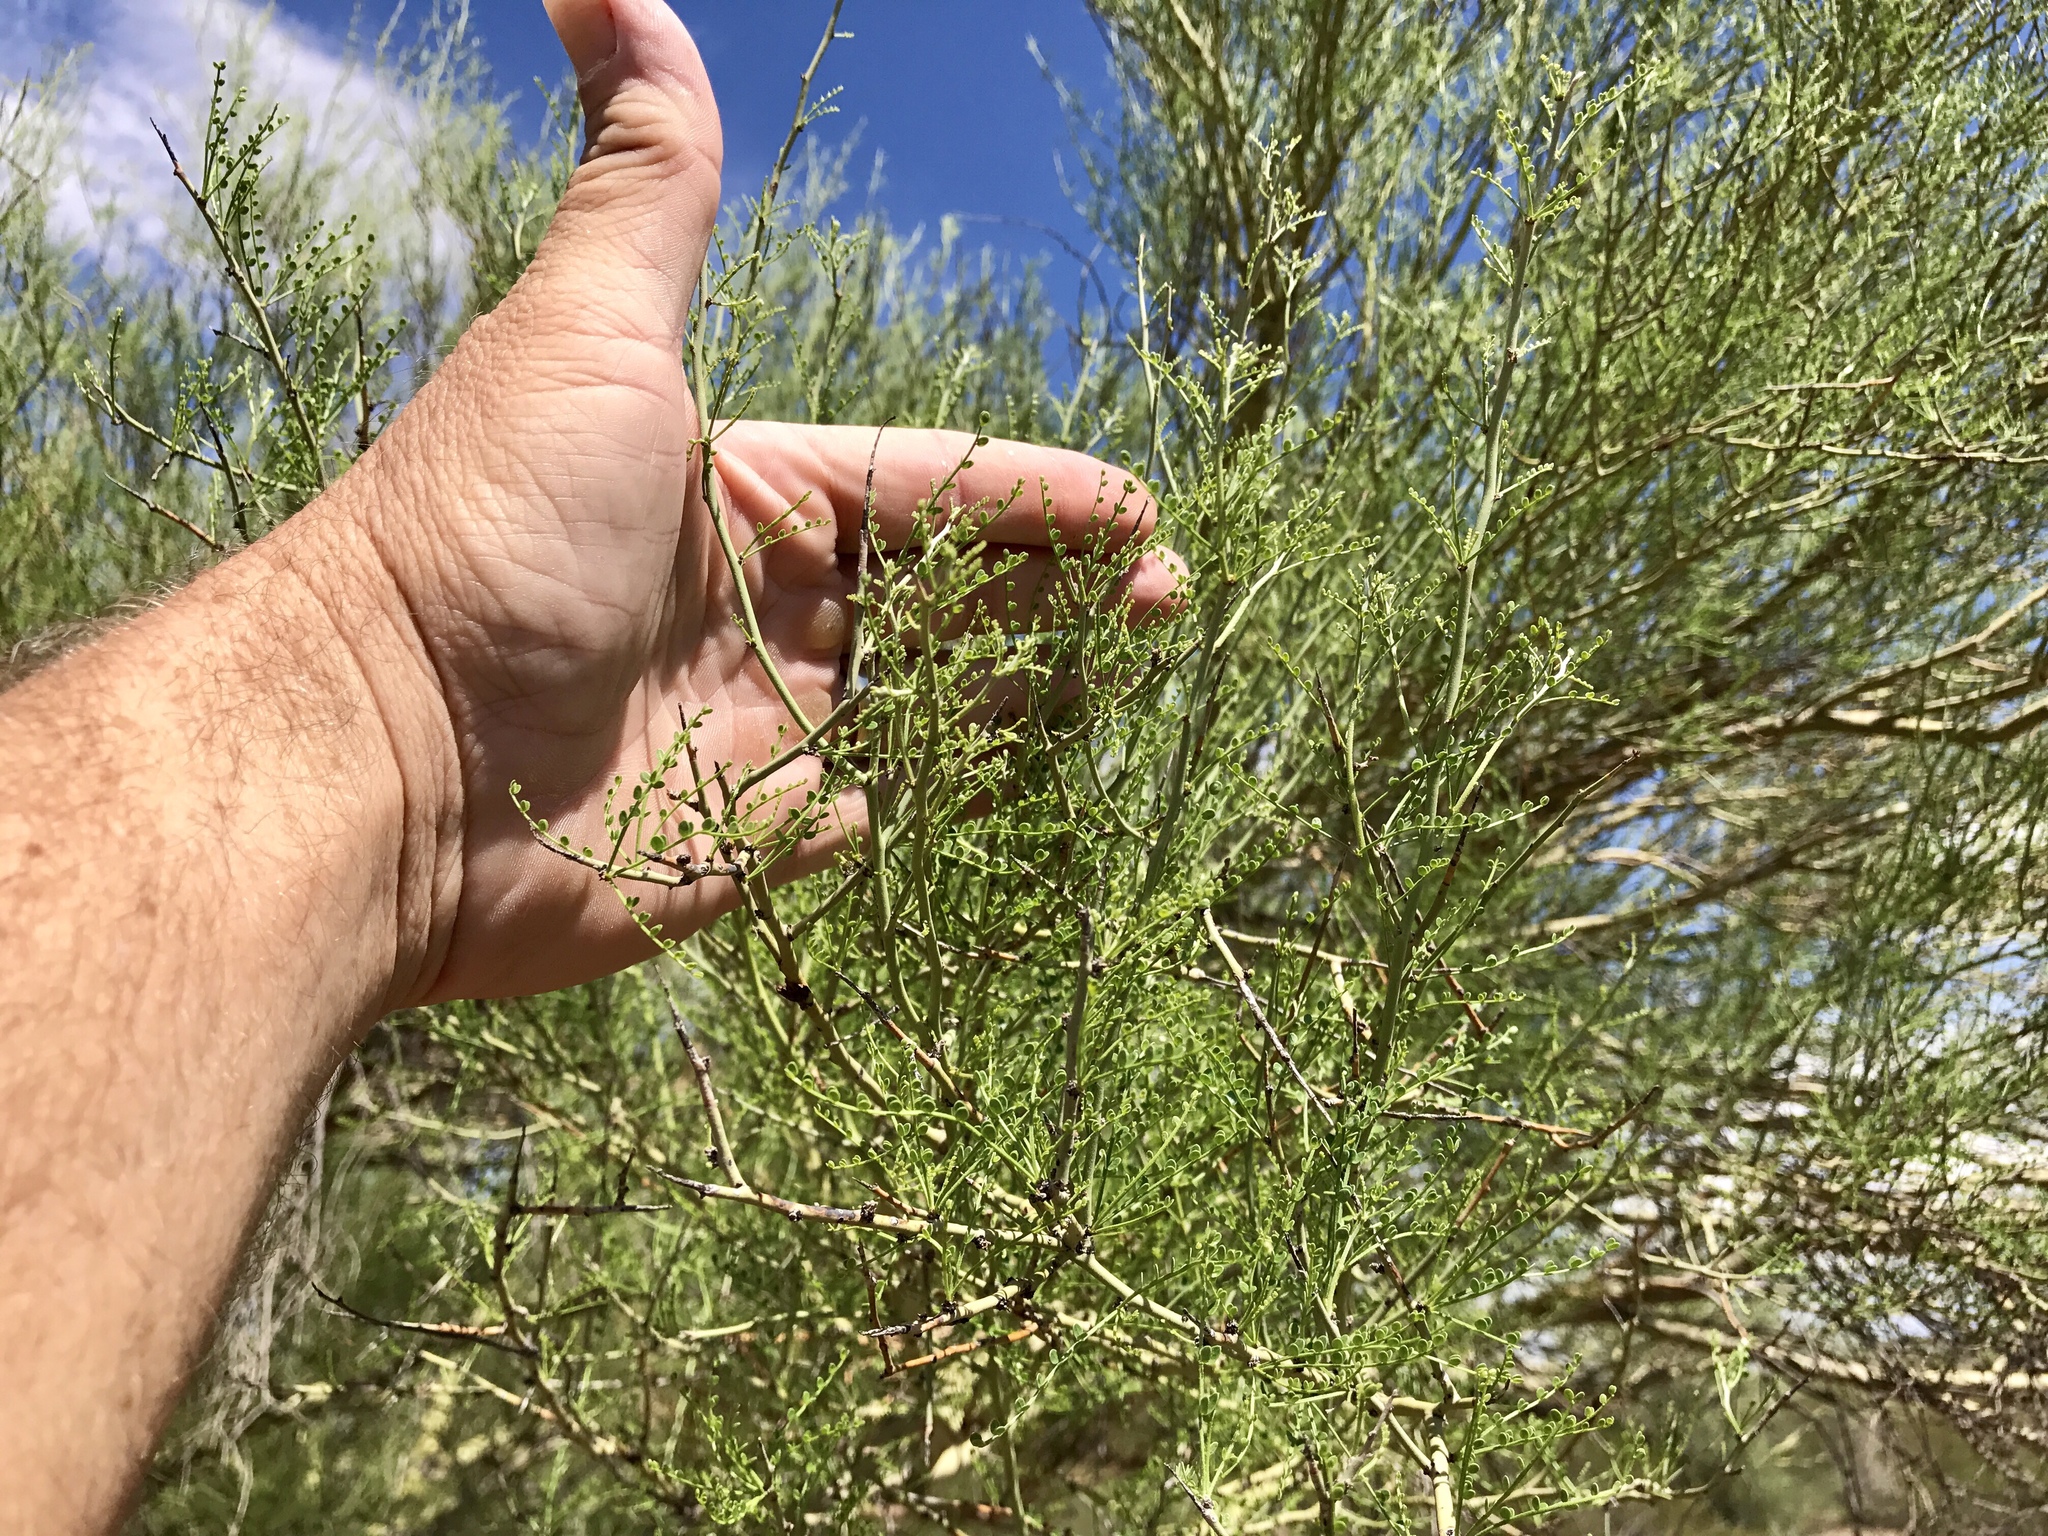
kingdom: Plantae
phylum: Tracheophyta
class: Magnoliopsida
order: Fabales
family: Fabaceae
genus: Parkinsonia
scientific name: Parkinsonia microphylla
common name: Yellow paloverde
